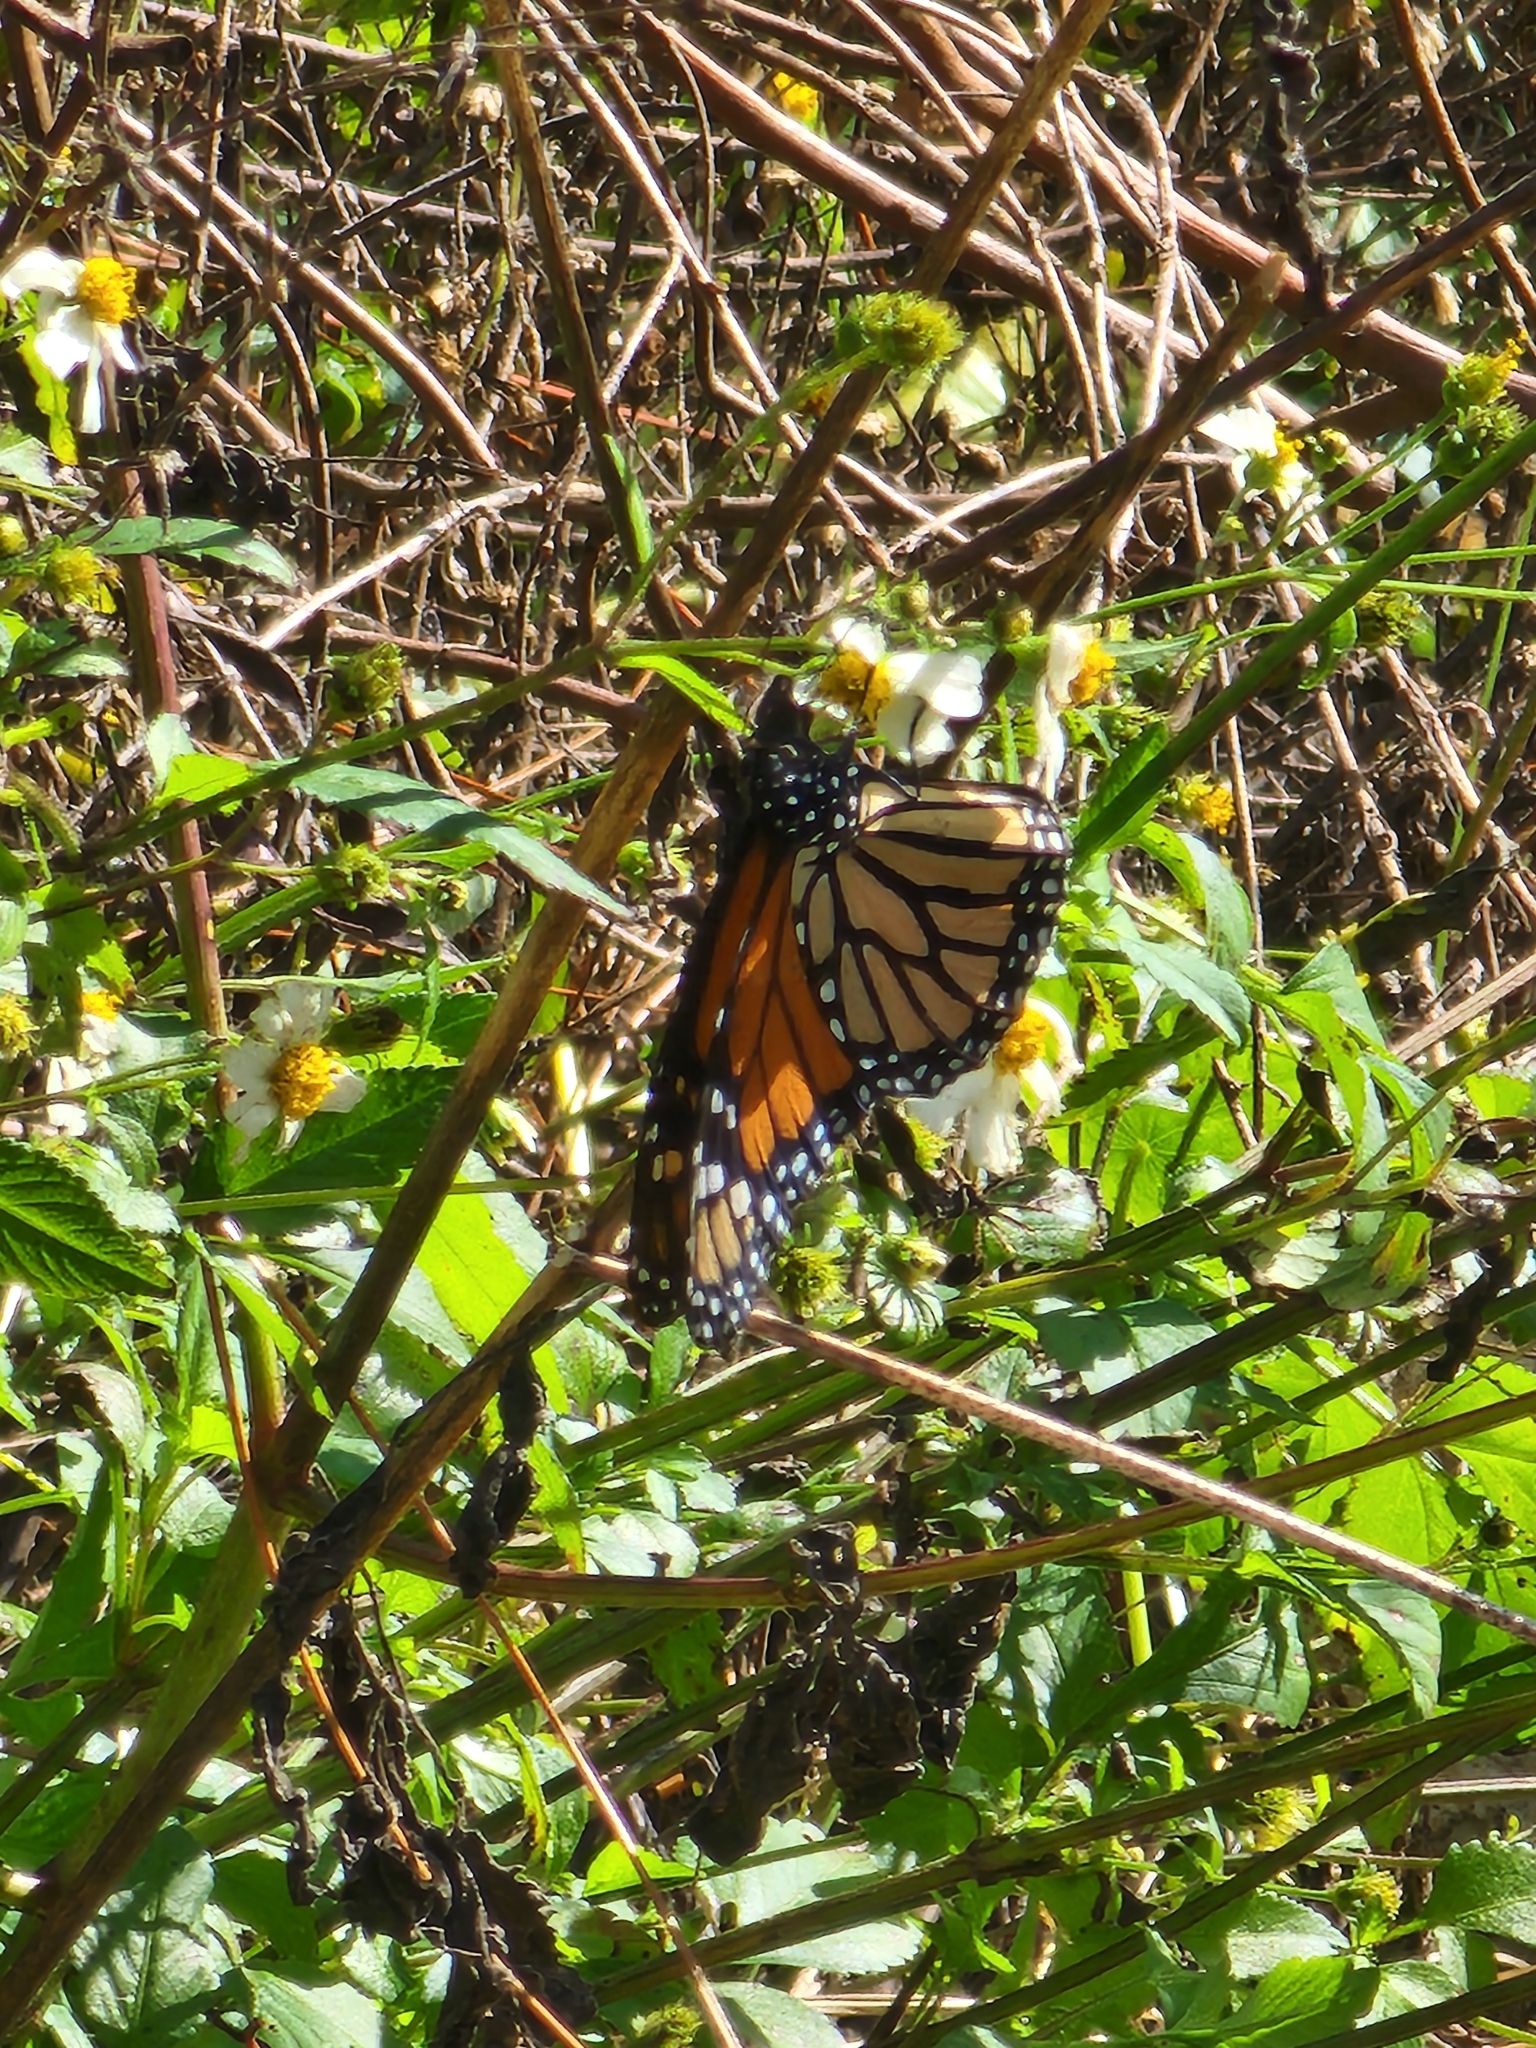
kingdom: Animalia
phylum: Arthropoda
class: Insecta
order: Lepidoptera
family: Nymphalidae
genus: Danaus
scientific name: Danaus plexippus
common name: Monarch
